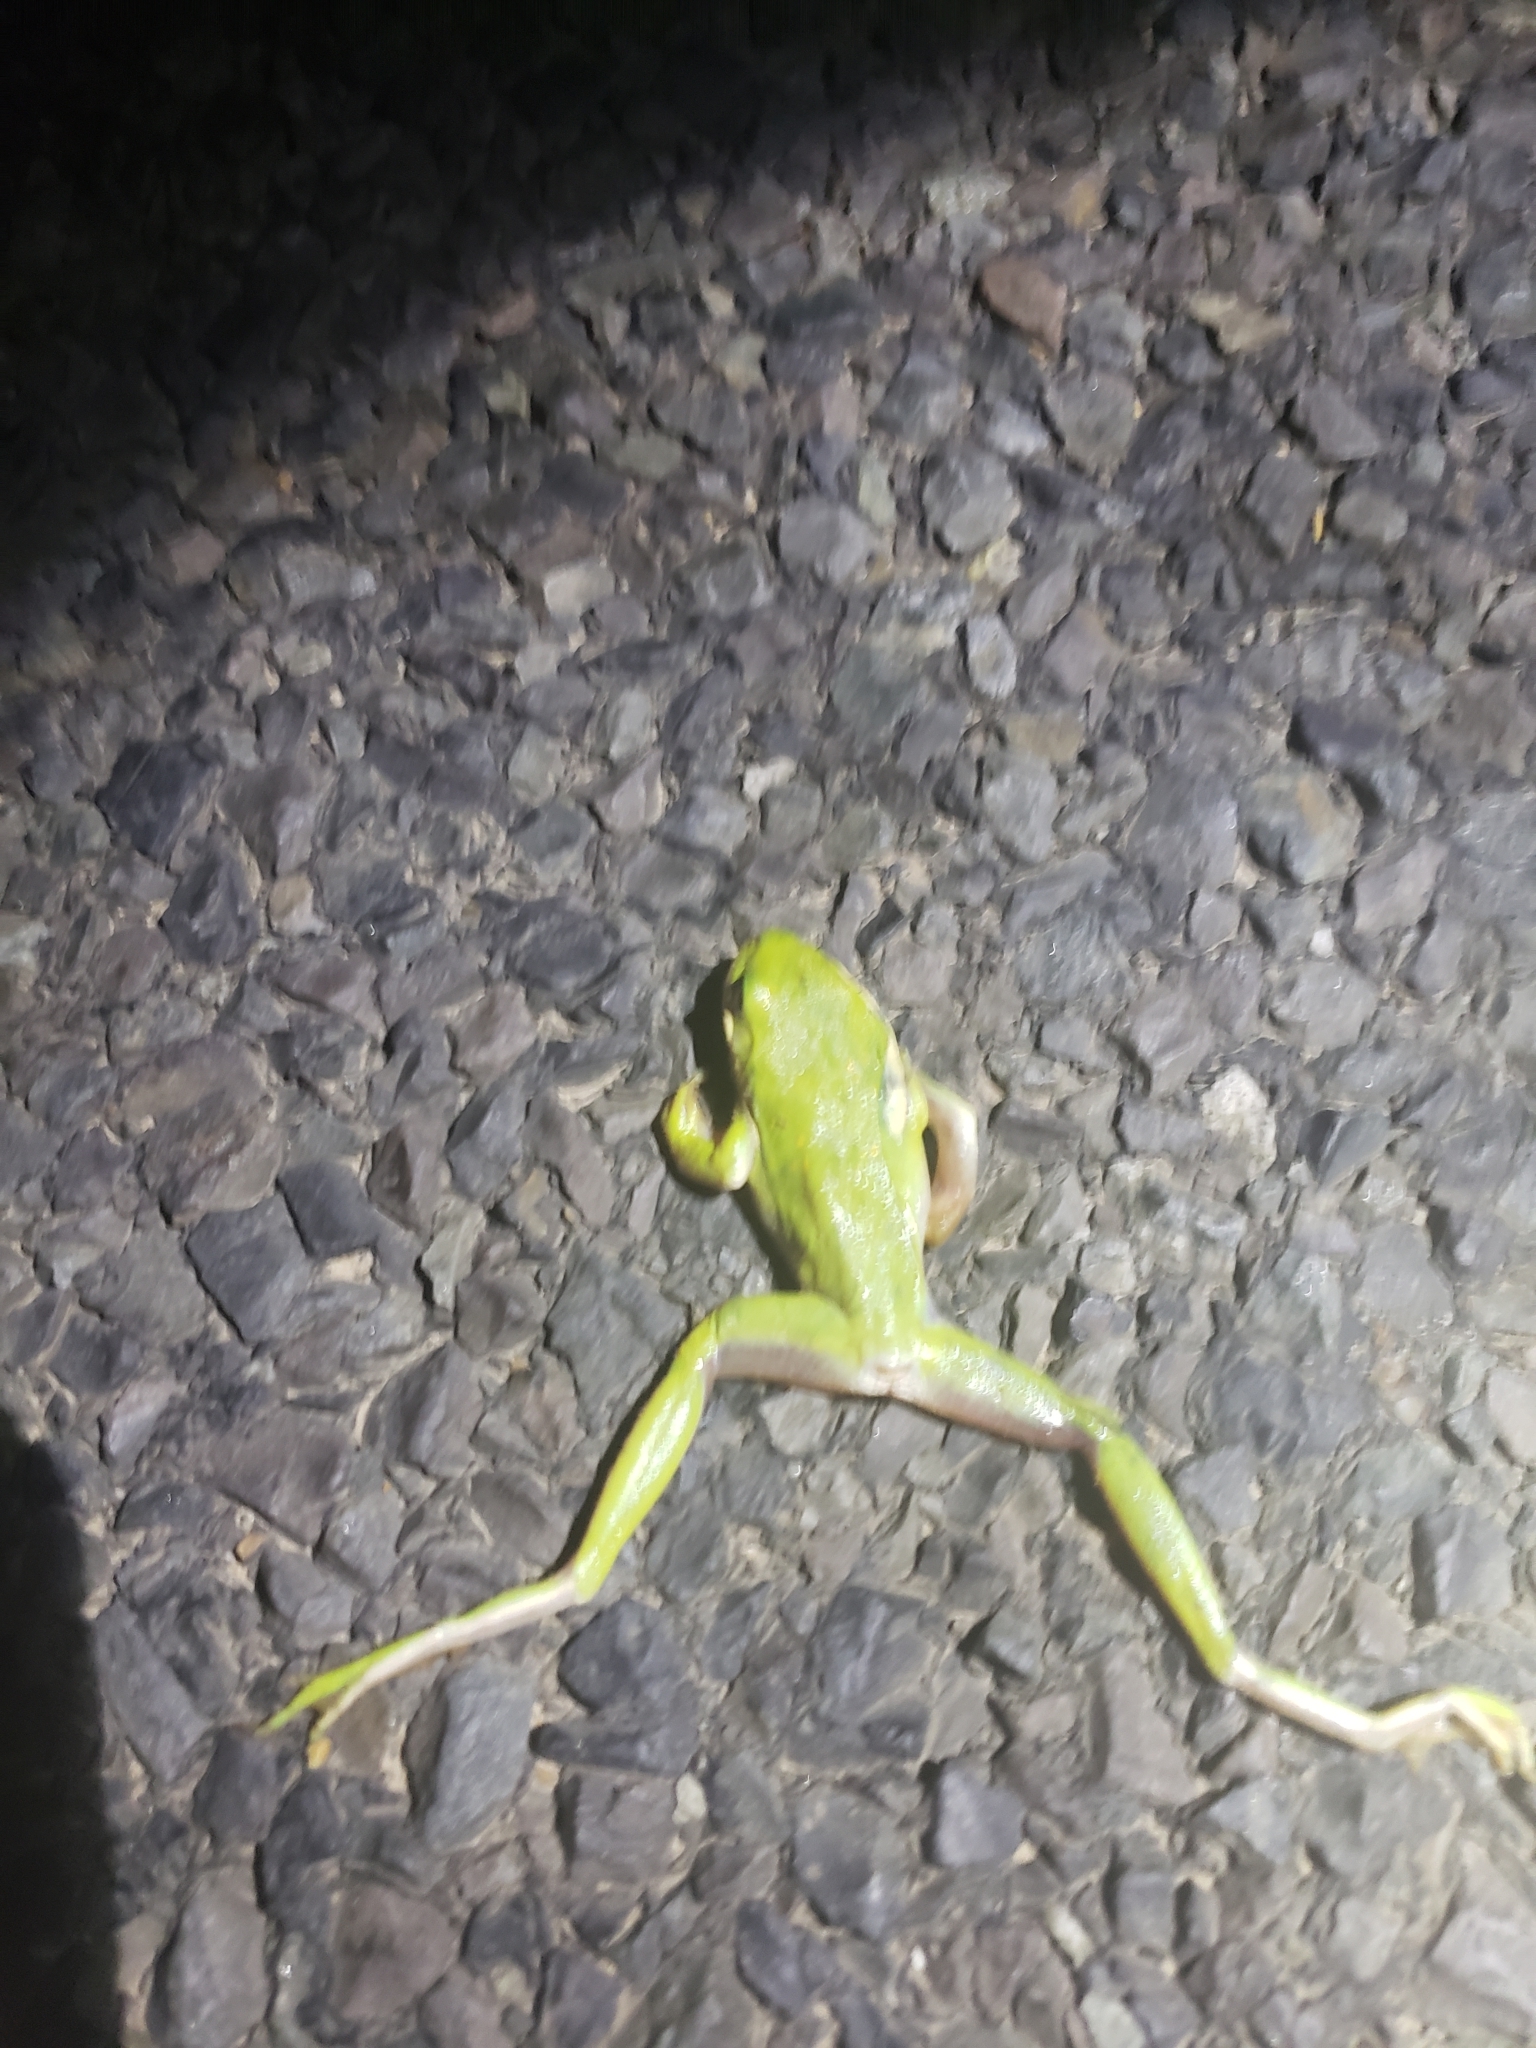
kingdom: Animalia
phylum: Chordata
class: Amphibia
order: Anura
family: Hylidae
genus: Dryophytes
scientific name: Dryophytes cinereus
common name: Green treefrog
